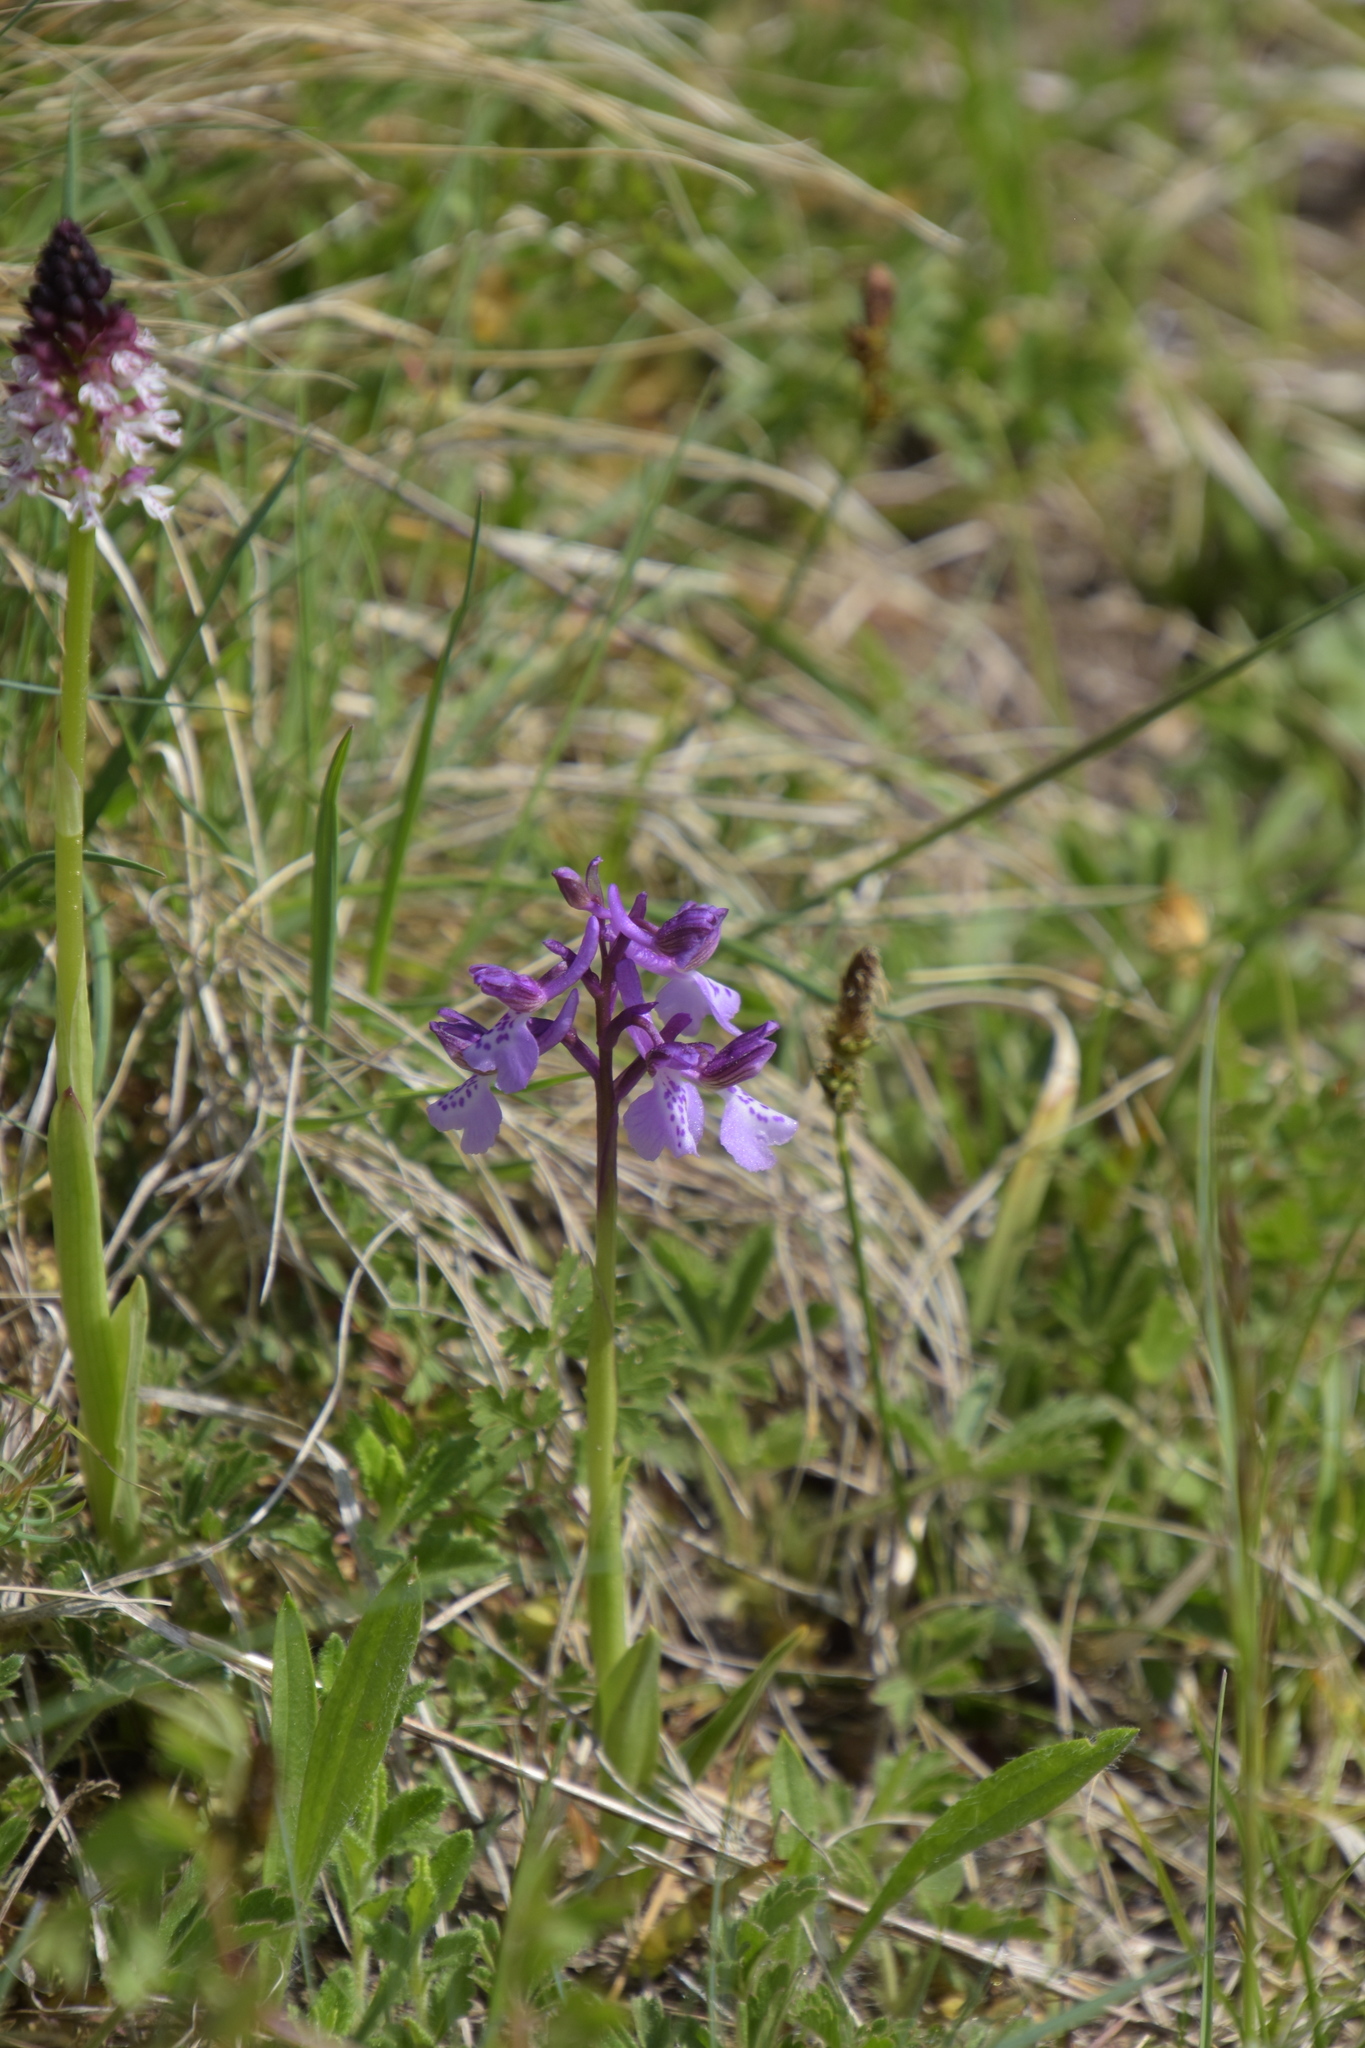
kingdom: Plantae
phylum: Tracheophyta
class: Liliopsida
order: Asparagales
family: Orchidaceae
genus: Anacamptis
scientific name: Anacamptis morio
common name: Green-winged orchid
